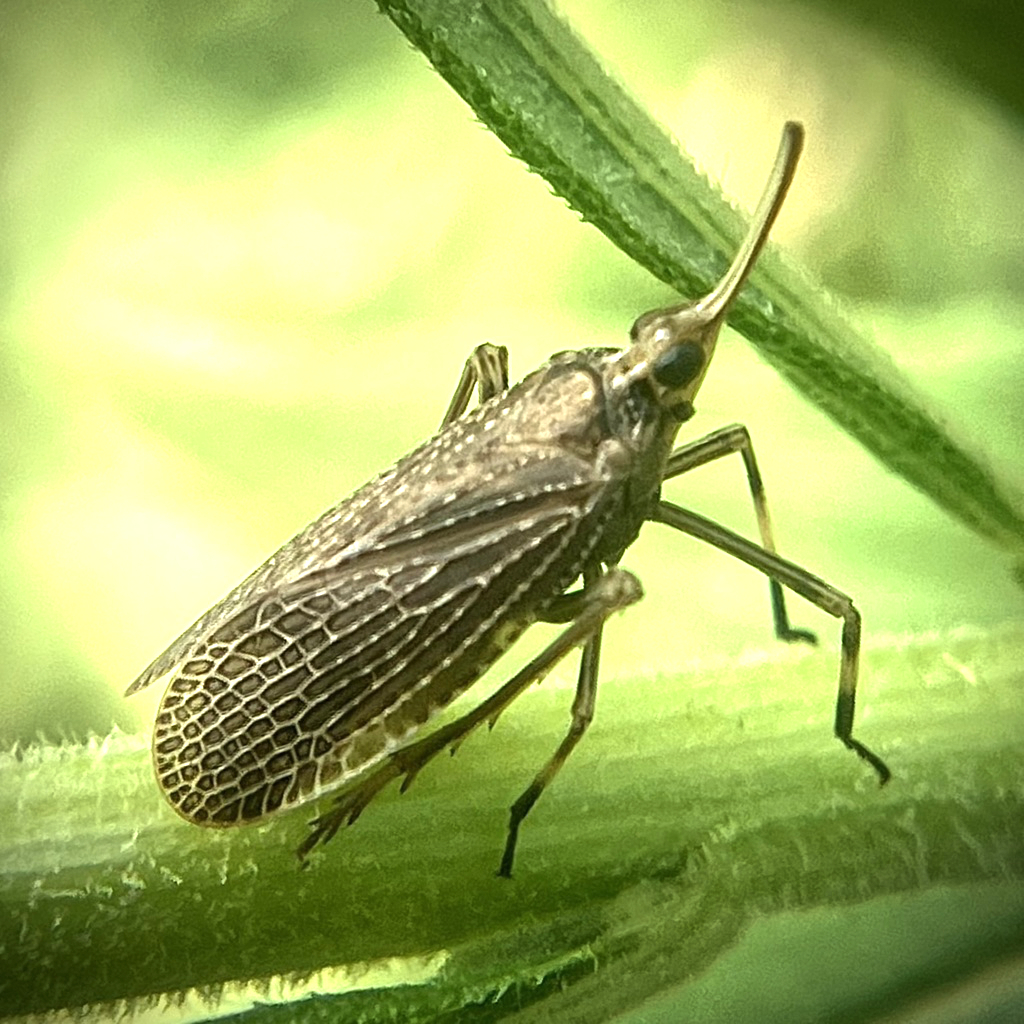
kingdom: Animalia
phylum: Arthropoda
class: Insecta
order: Hemiptera
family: Dictyopharidae
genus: Scolops
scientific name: Scolops sulcipes
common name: Partridge planthopper
